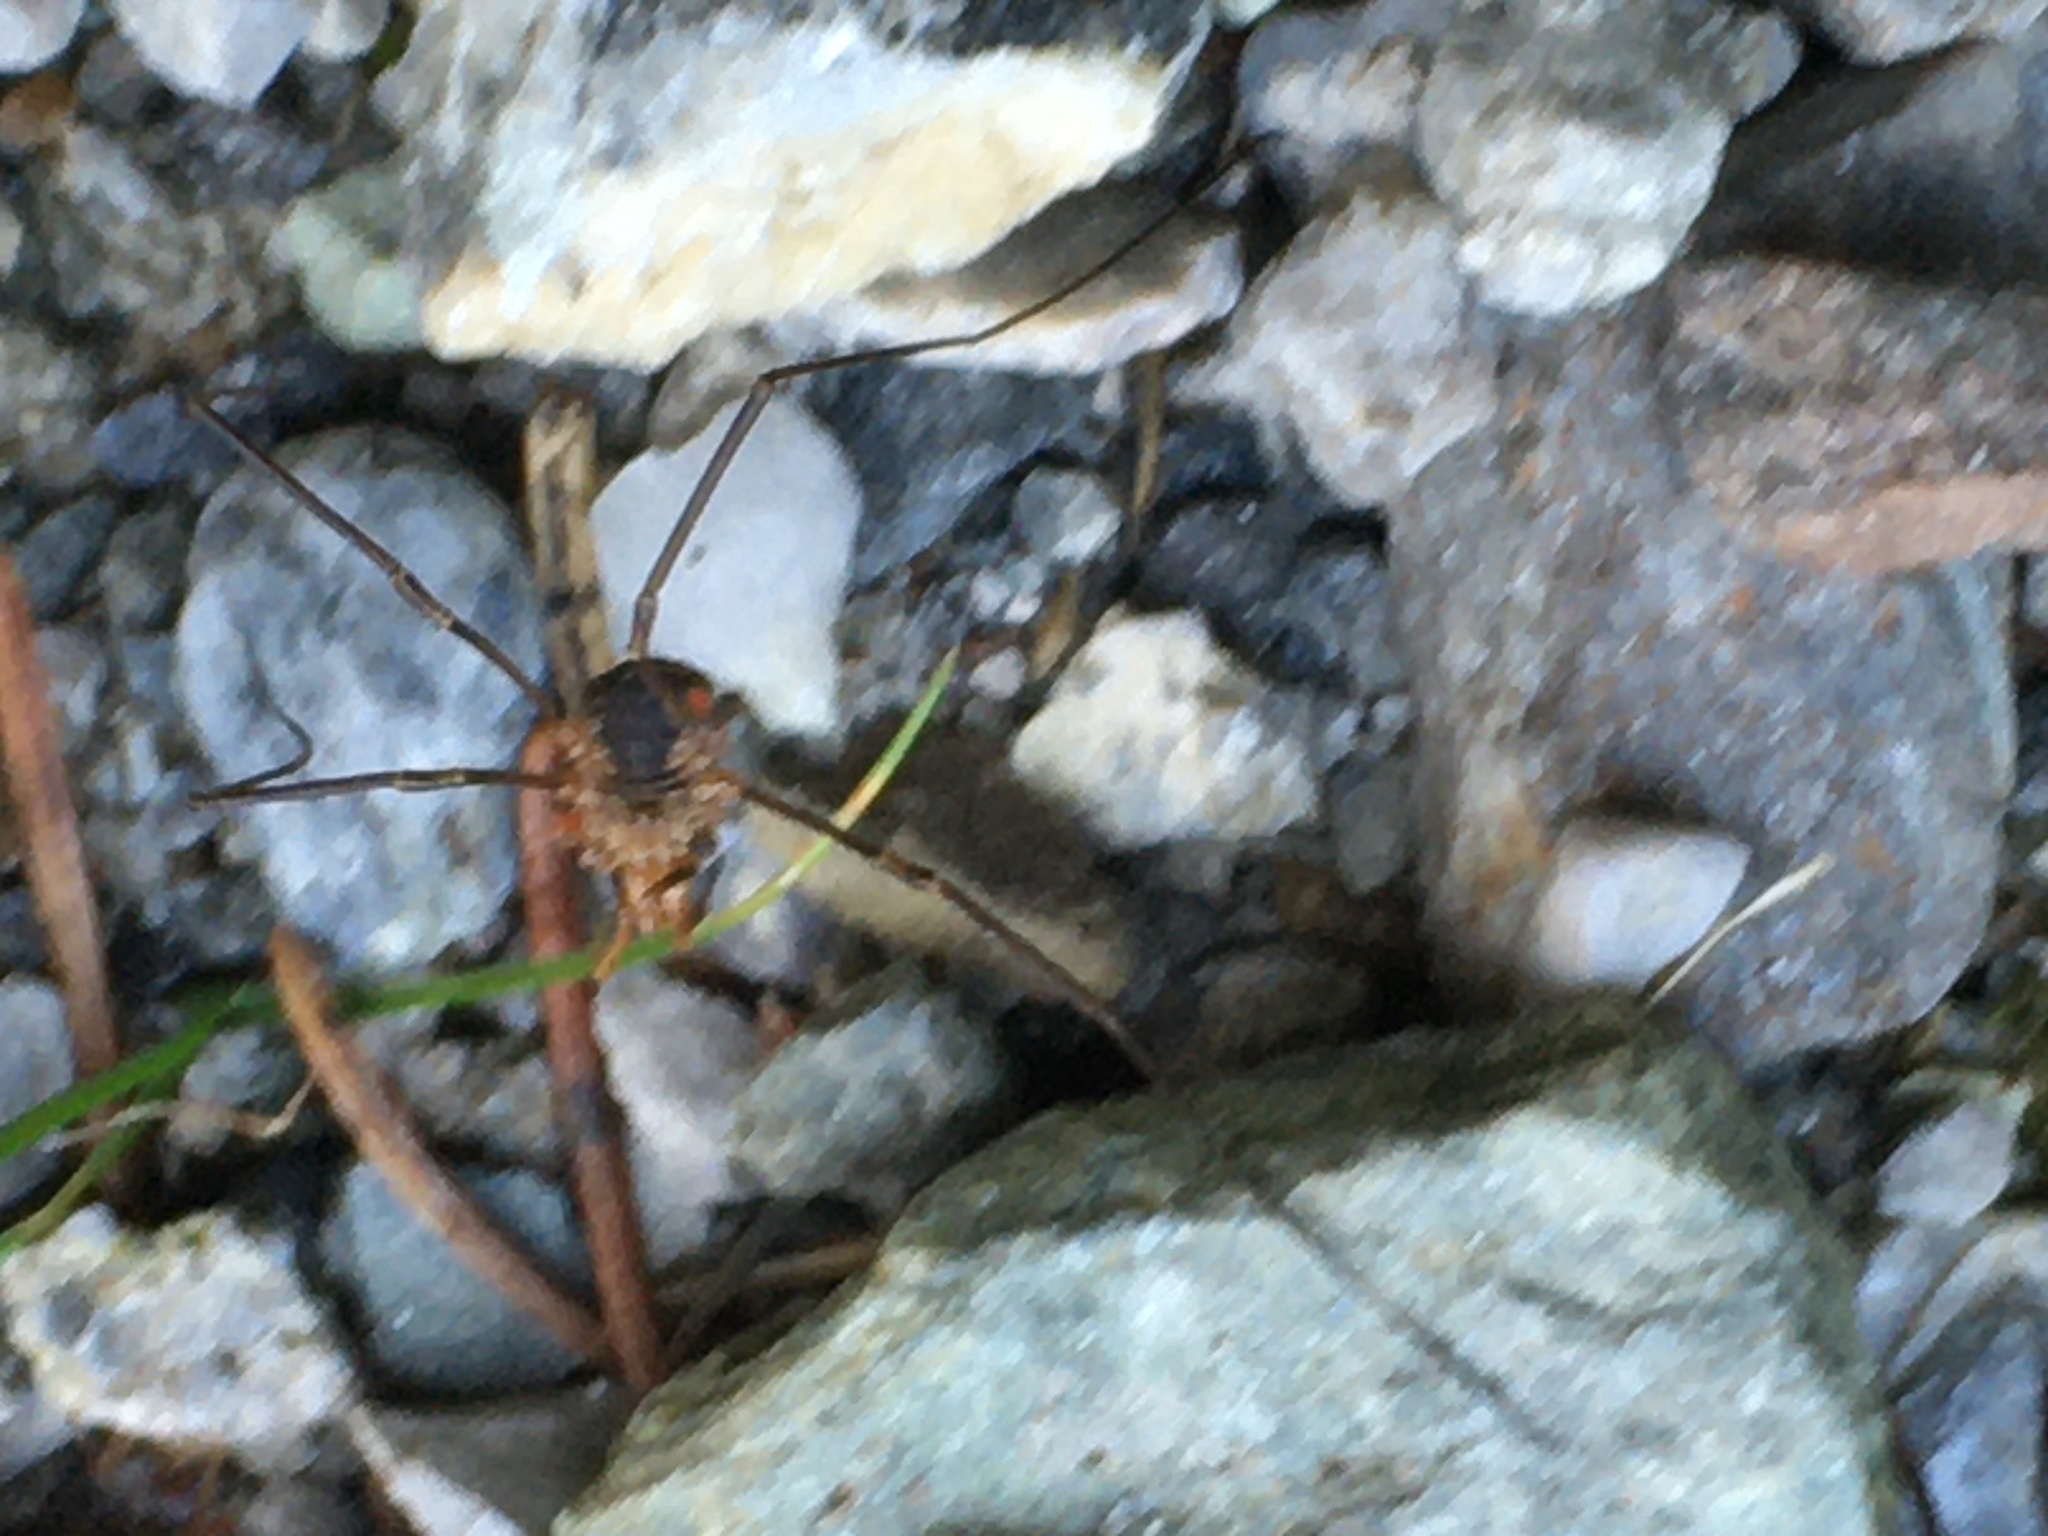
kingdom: Animalia
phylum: Arthropoda
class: Arachnida
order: Opiliones
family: Phalangiidae
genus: Phalangium
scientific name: Phalangium opilio
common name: Daddy longleg
